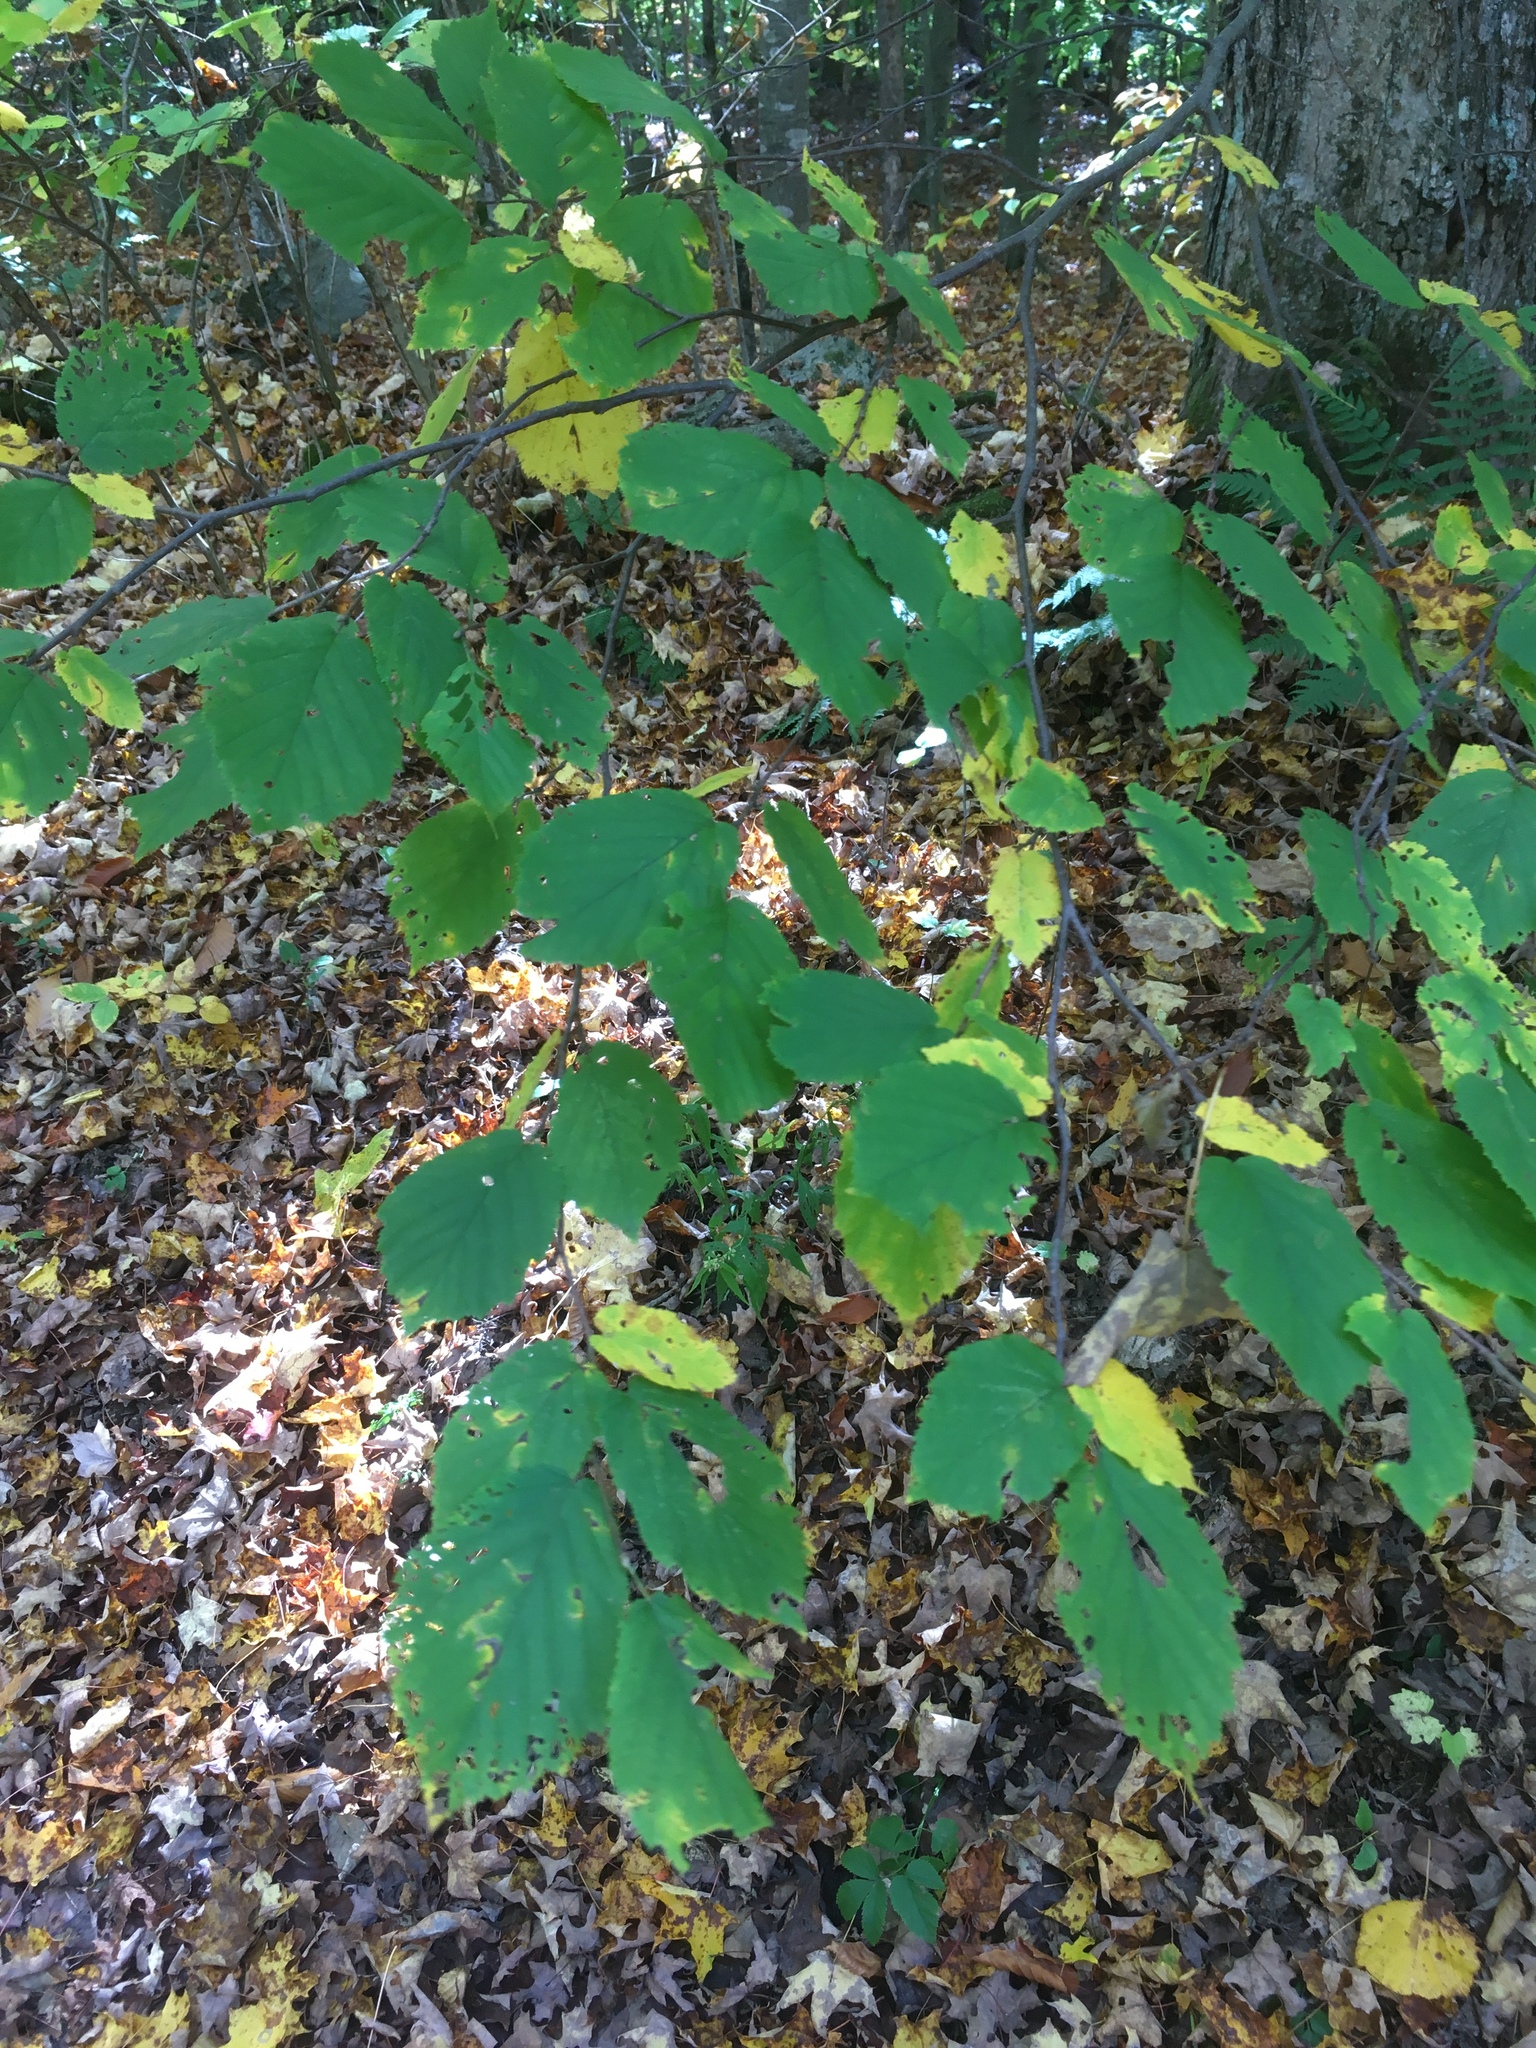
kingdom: Plantae
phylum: Tracheophyta
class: Magnoliopsida
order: Fagales
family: Betulaceae
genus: Corylus
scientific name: Corylus cornuta
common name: Beaked hazel
